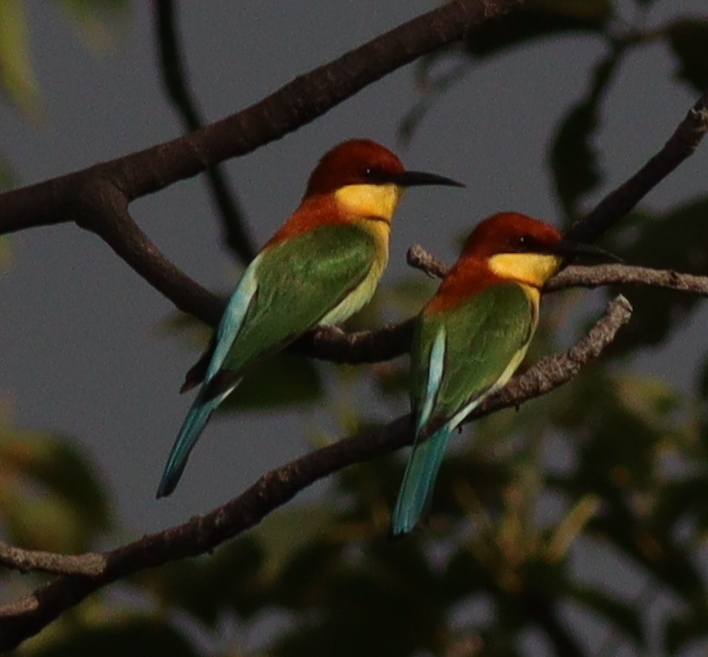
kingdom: Animalia
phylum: Chordata
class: Aves
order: Coraciiformes
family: Meropidae
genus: Merops
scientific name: Merops leschenaulti
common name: Chestnut-headed bee-eater
